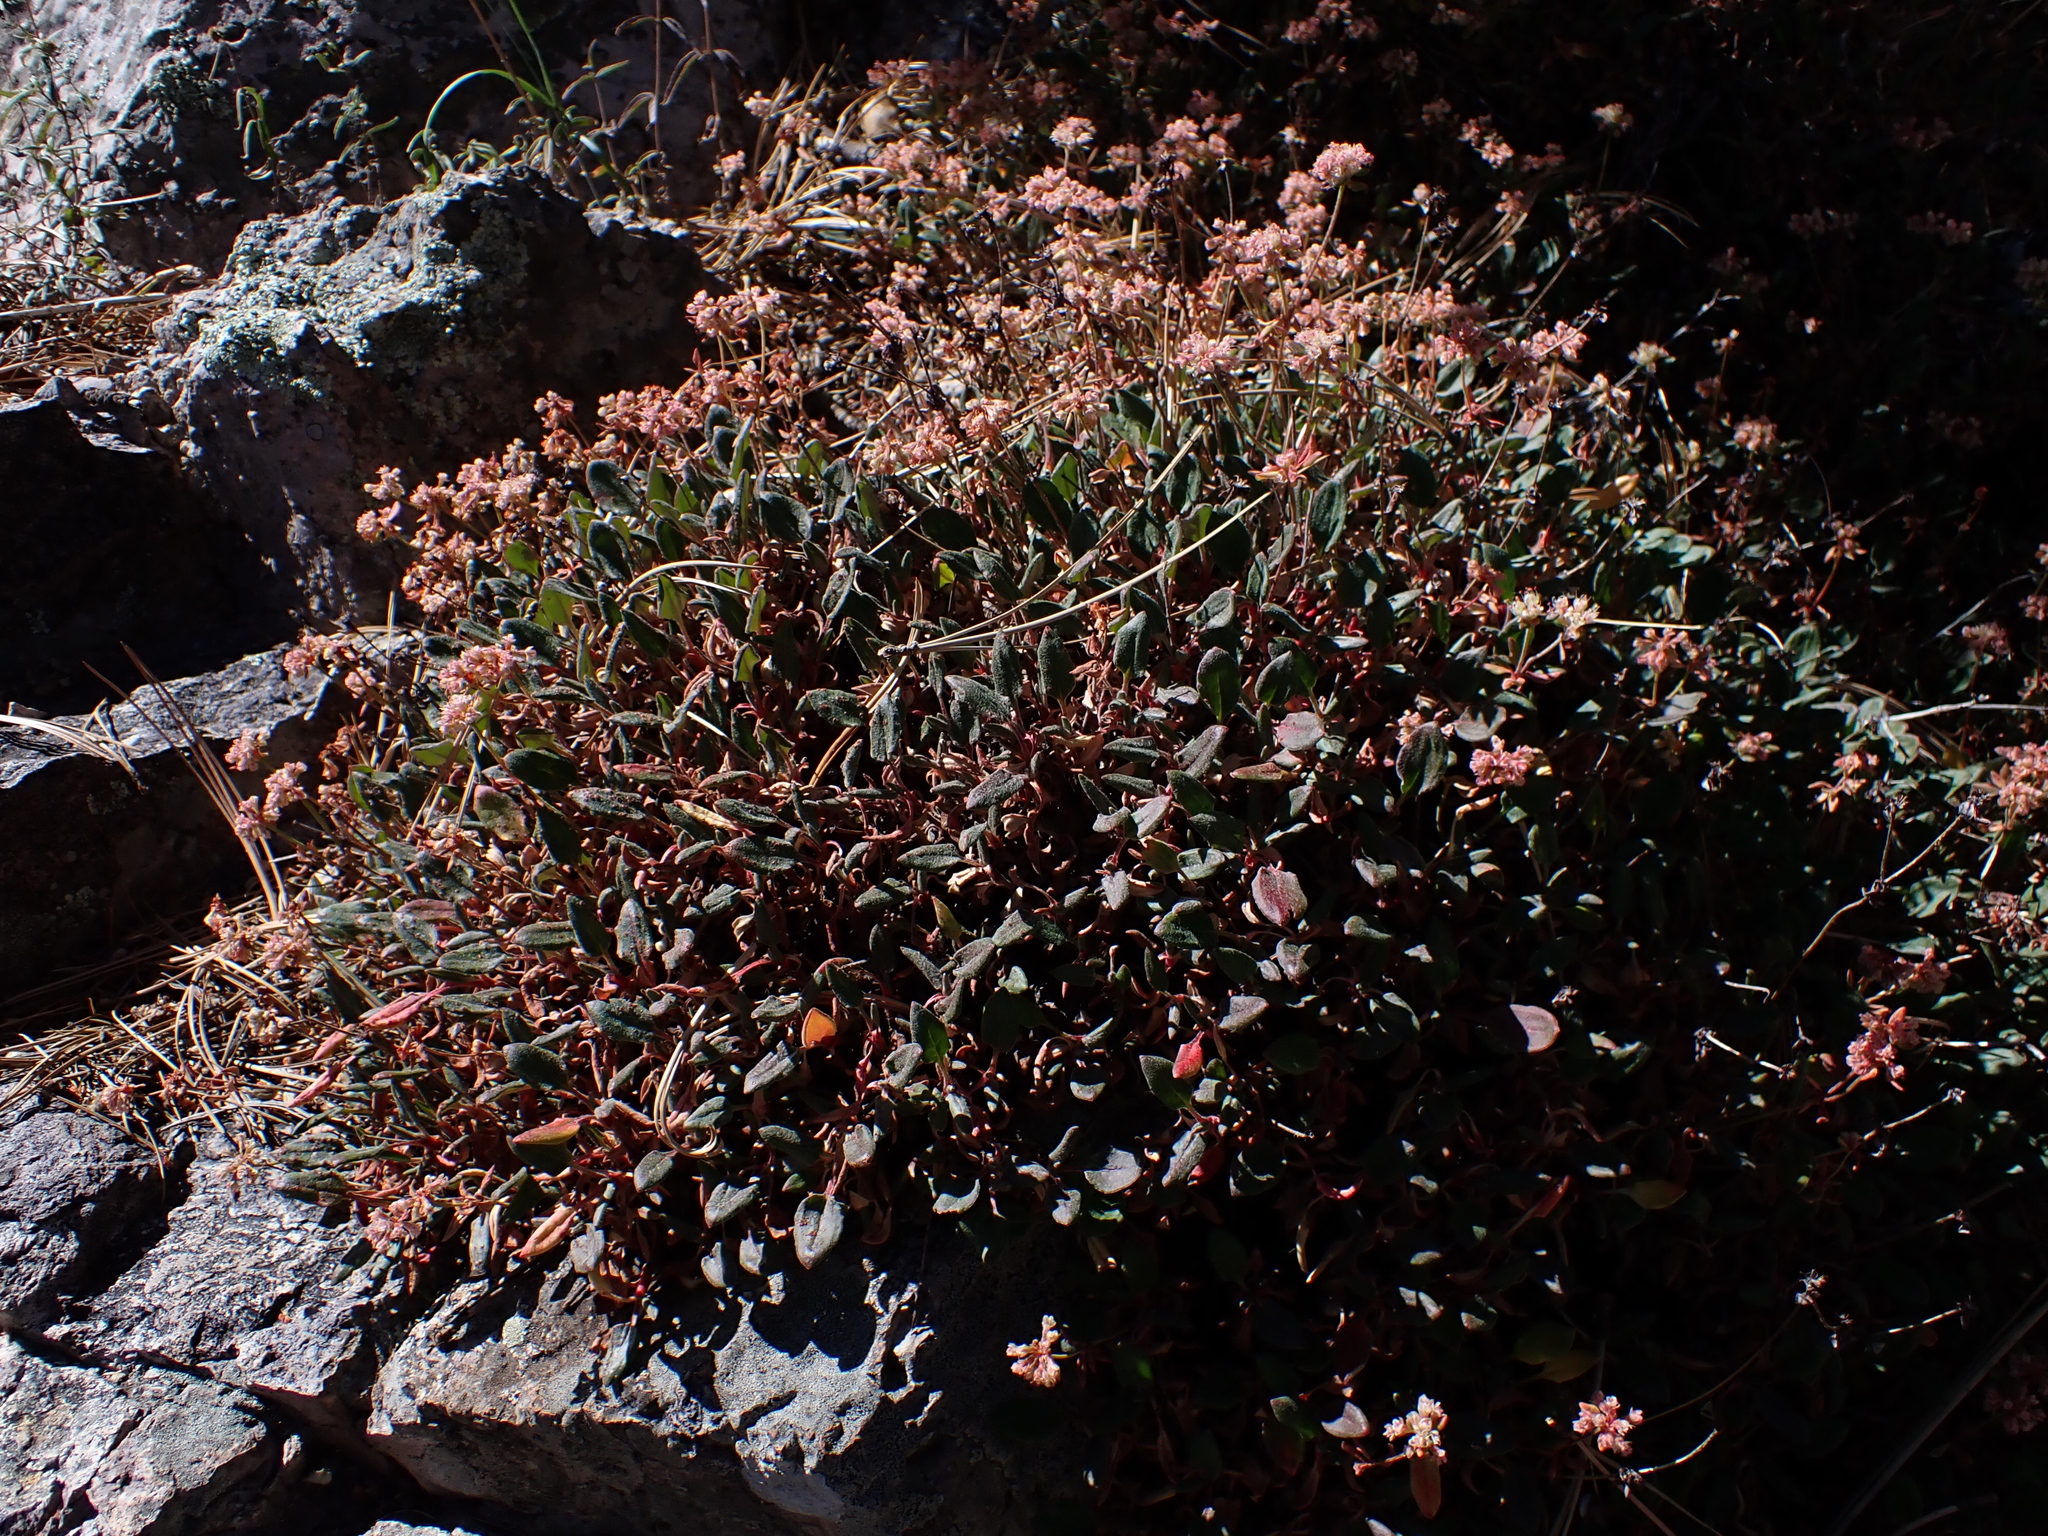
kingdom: Plantae
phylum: Tracheophyta
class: Magnoliopsida
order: Caryophyllales
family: Polygonaceae
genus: Eriogonum
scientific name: Eriogonum jamesii
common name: Antelope-sage
